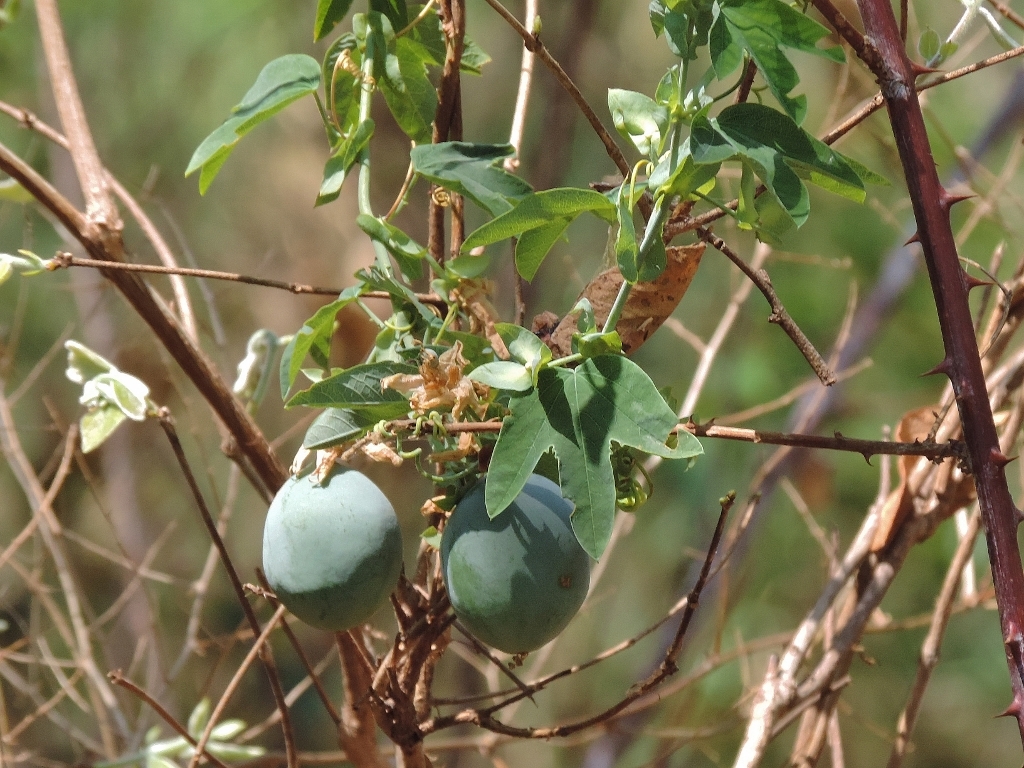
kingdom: Plantae
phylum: Tracheophyta
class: Magnoliopsida
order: Malpighiales
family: Passifloraceae
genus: Passiflora
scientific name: Passiflora subpeltata
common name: White passionflower
